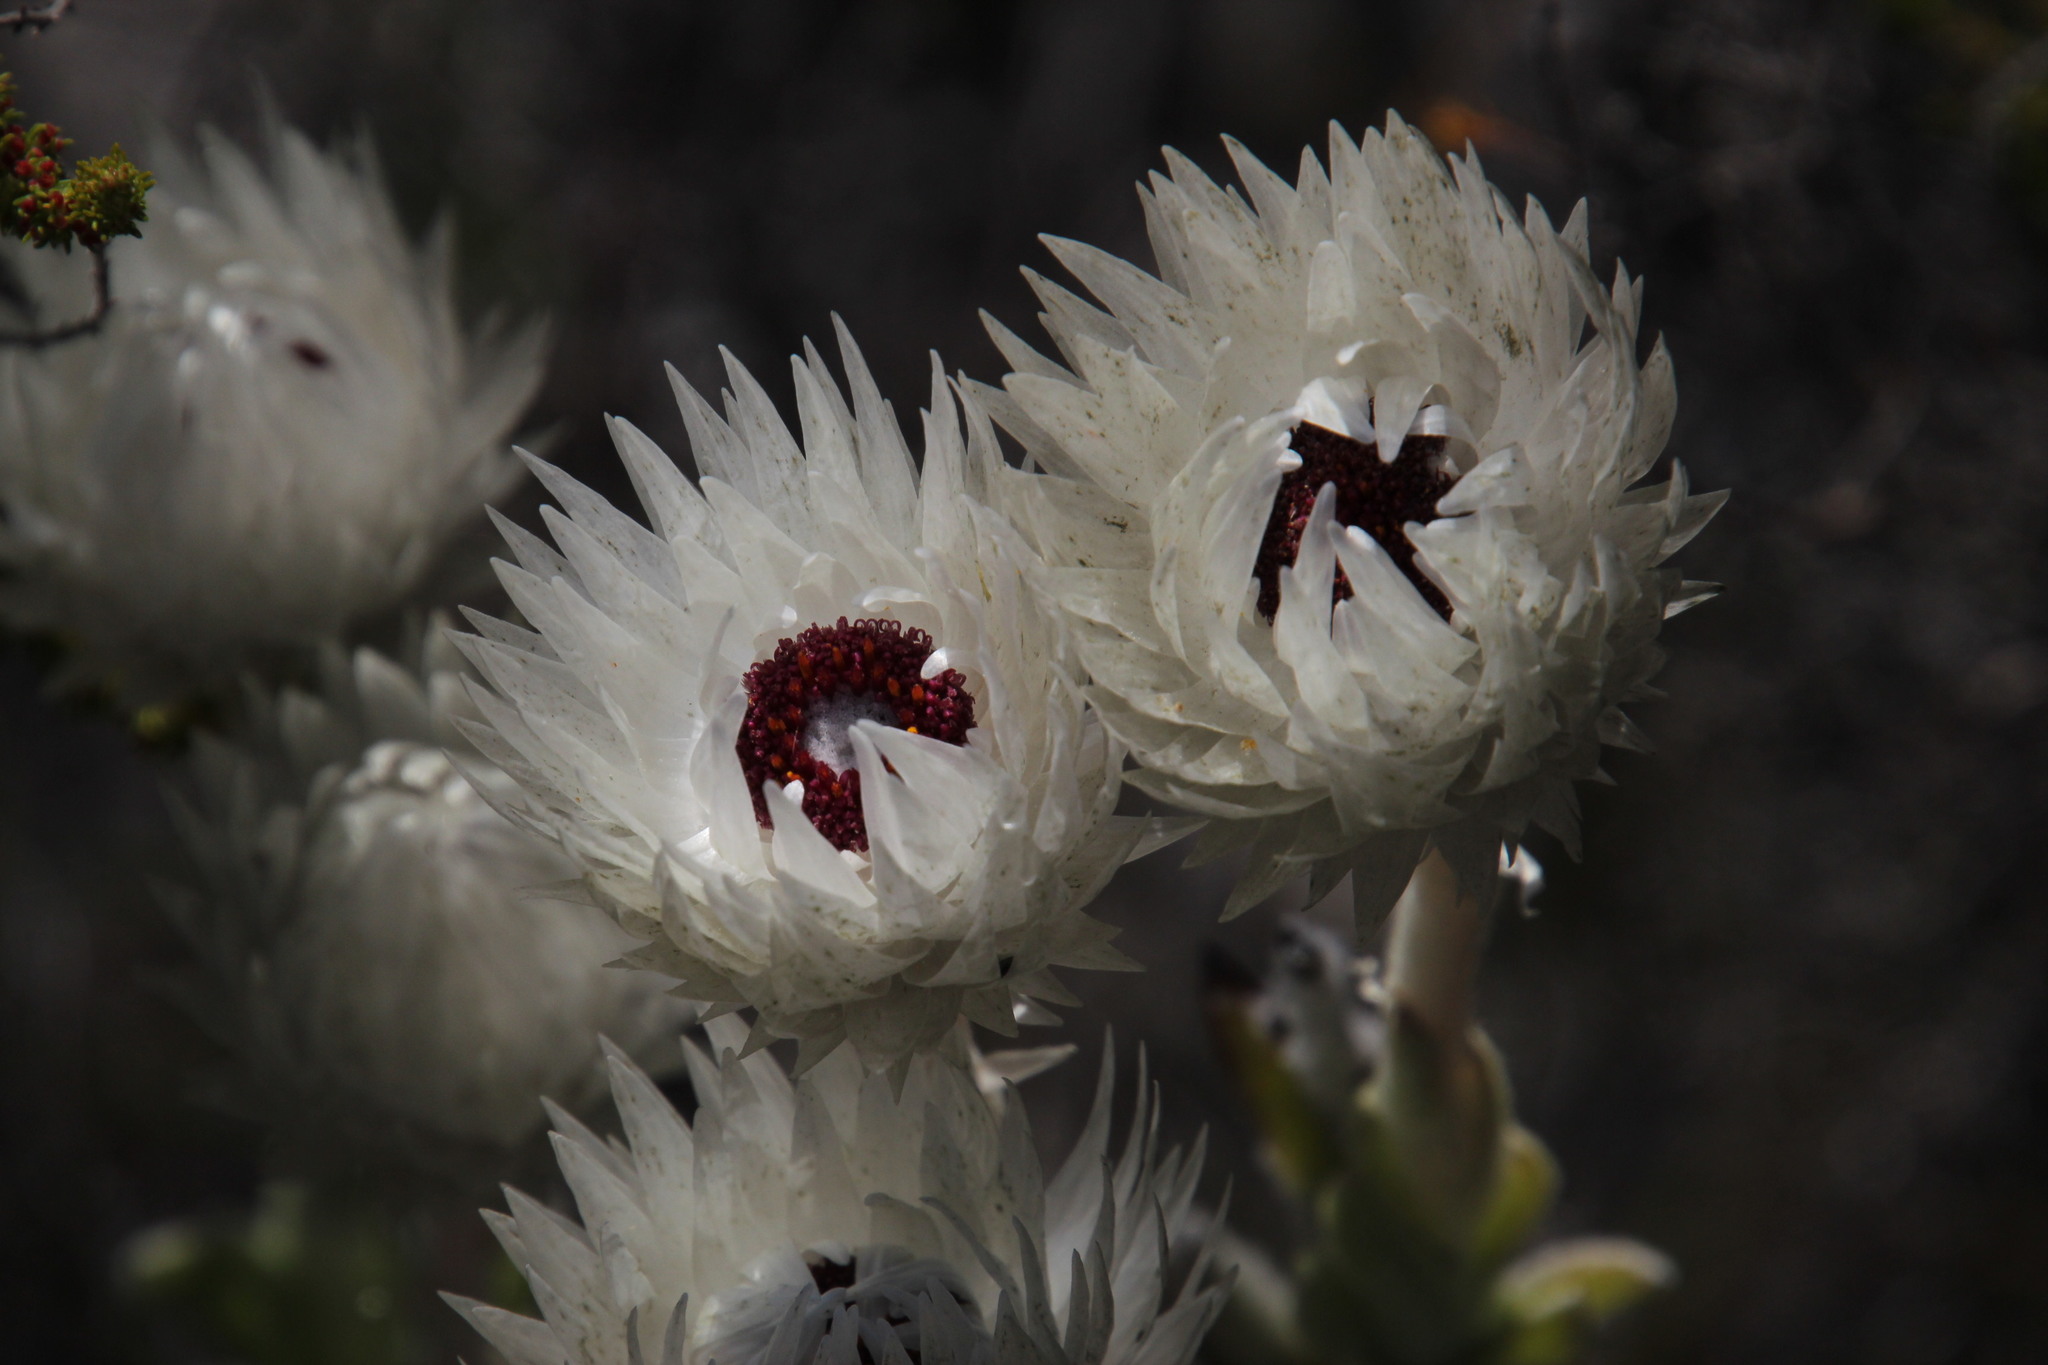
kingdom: Plantae
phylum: Tracheophyta
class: Magnoliopsida
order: Asterales
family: Asteraceae
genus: Syncarpha
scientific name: Syncarpha vestita
